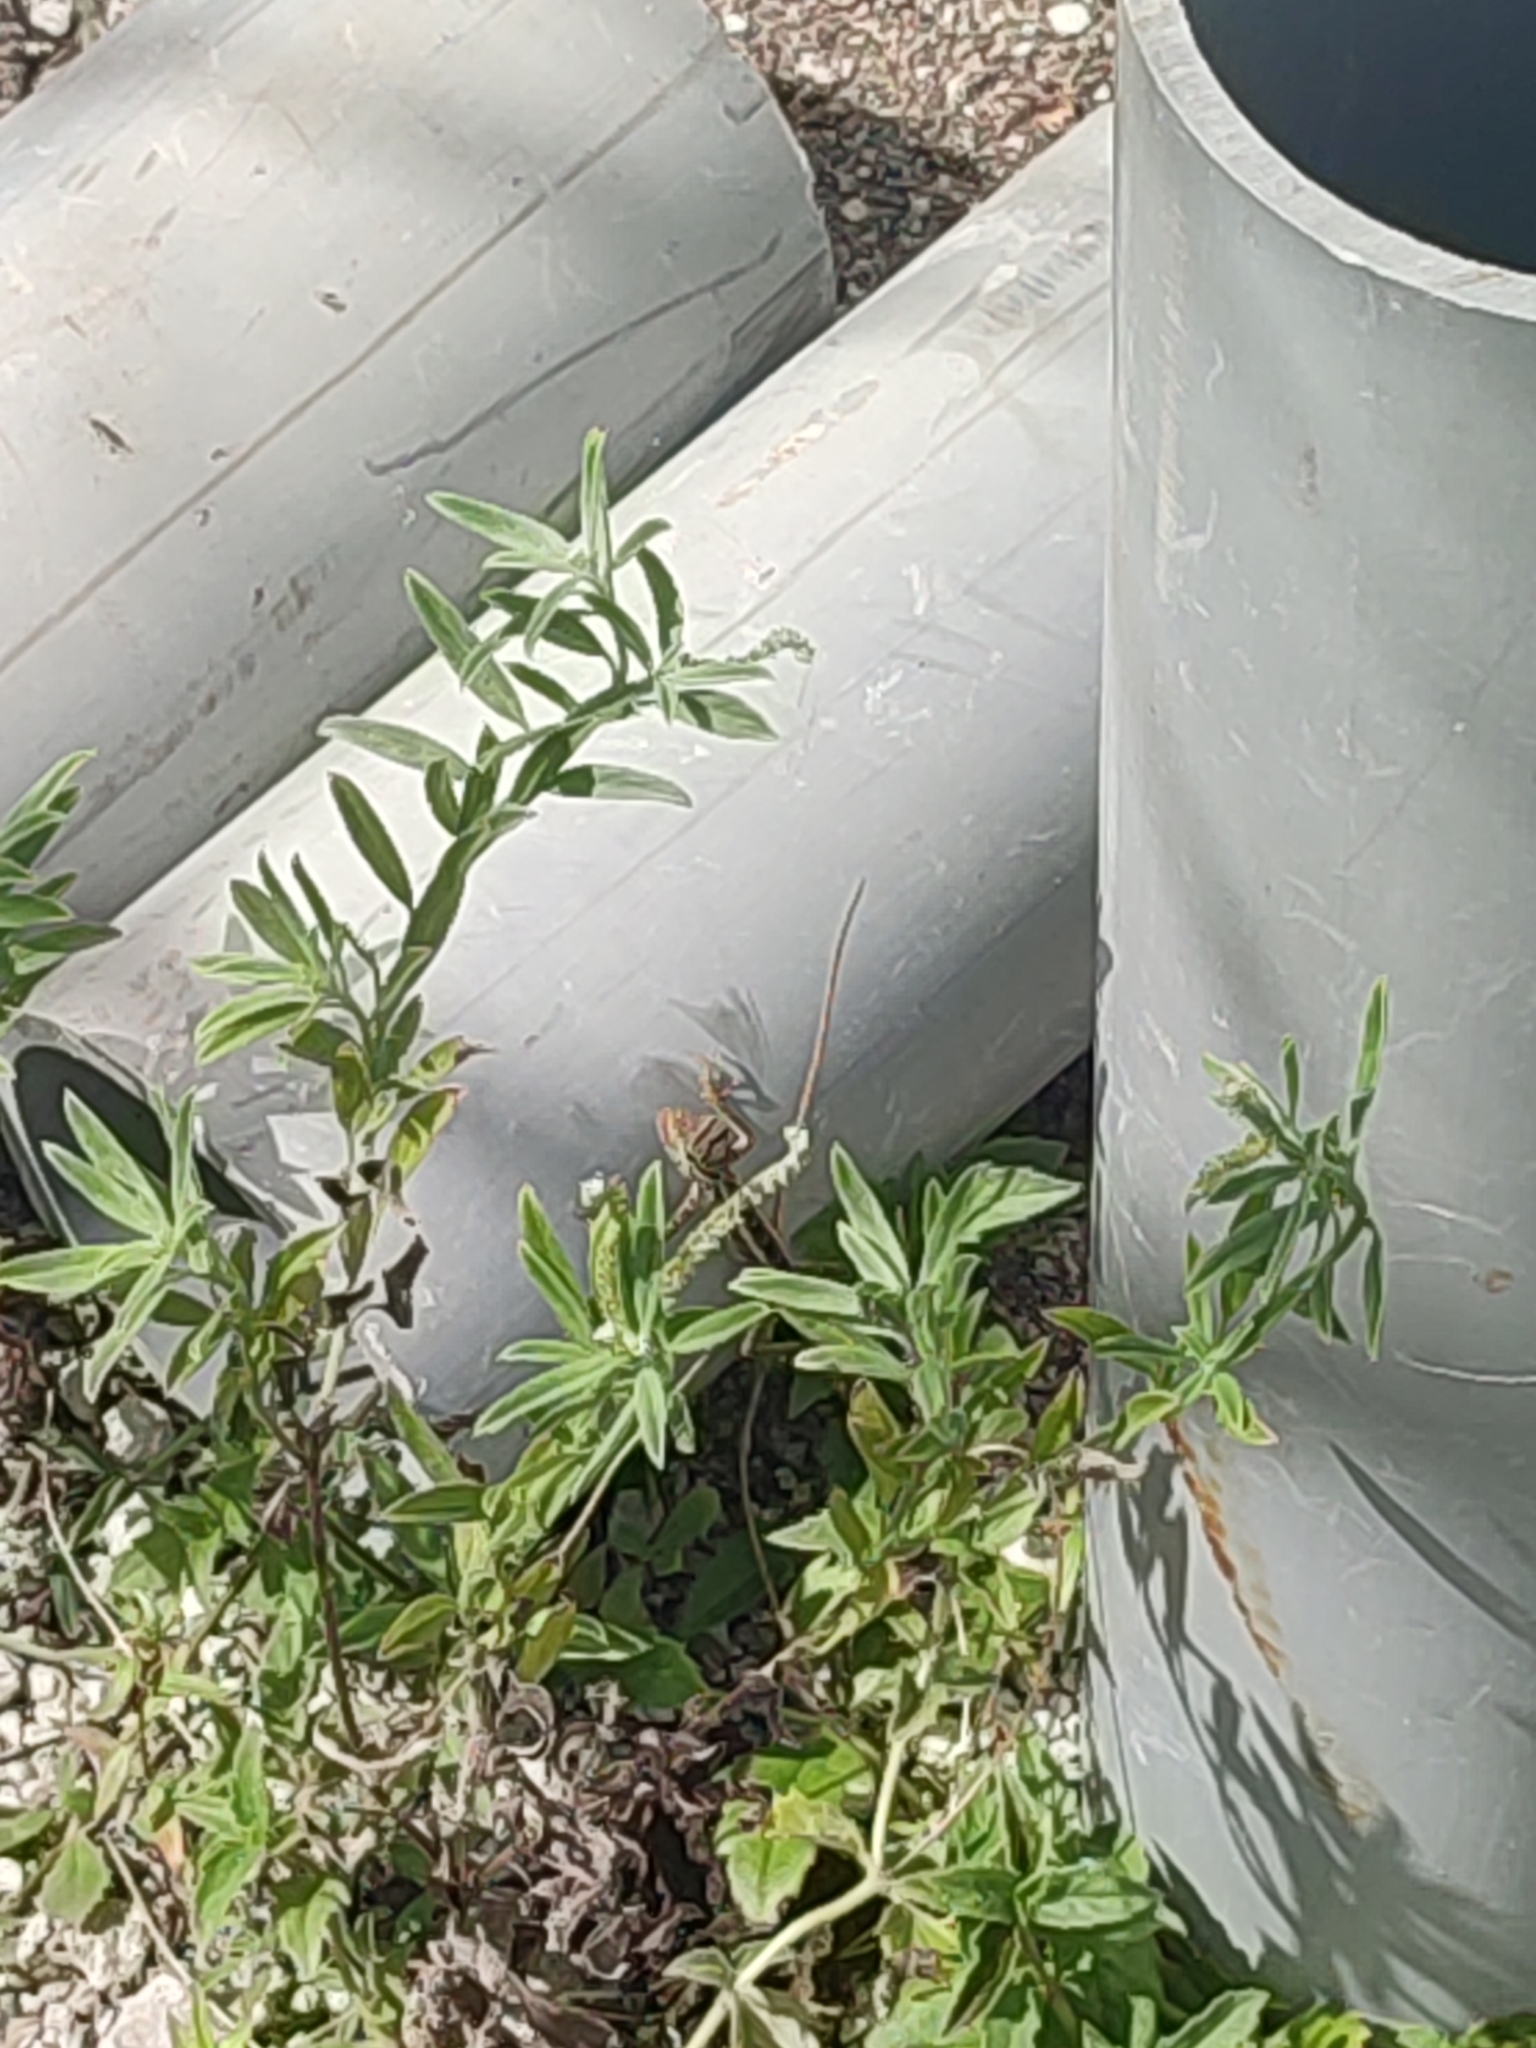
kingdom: Animalia
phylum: Chordata
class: Squamata
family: Agamidae
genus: Calotes
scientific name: Calotes versicolor
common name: Oriental garden lizard
